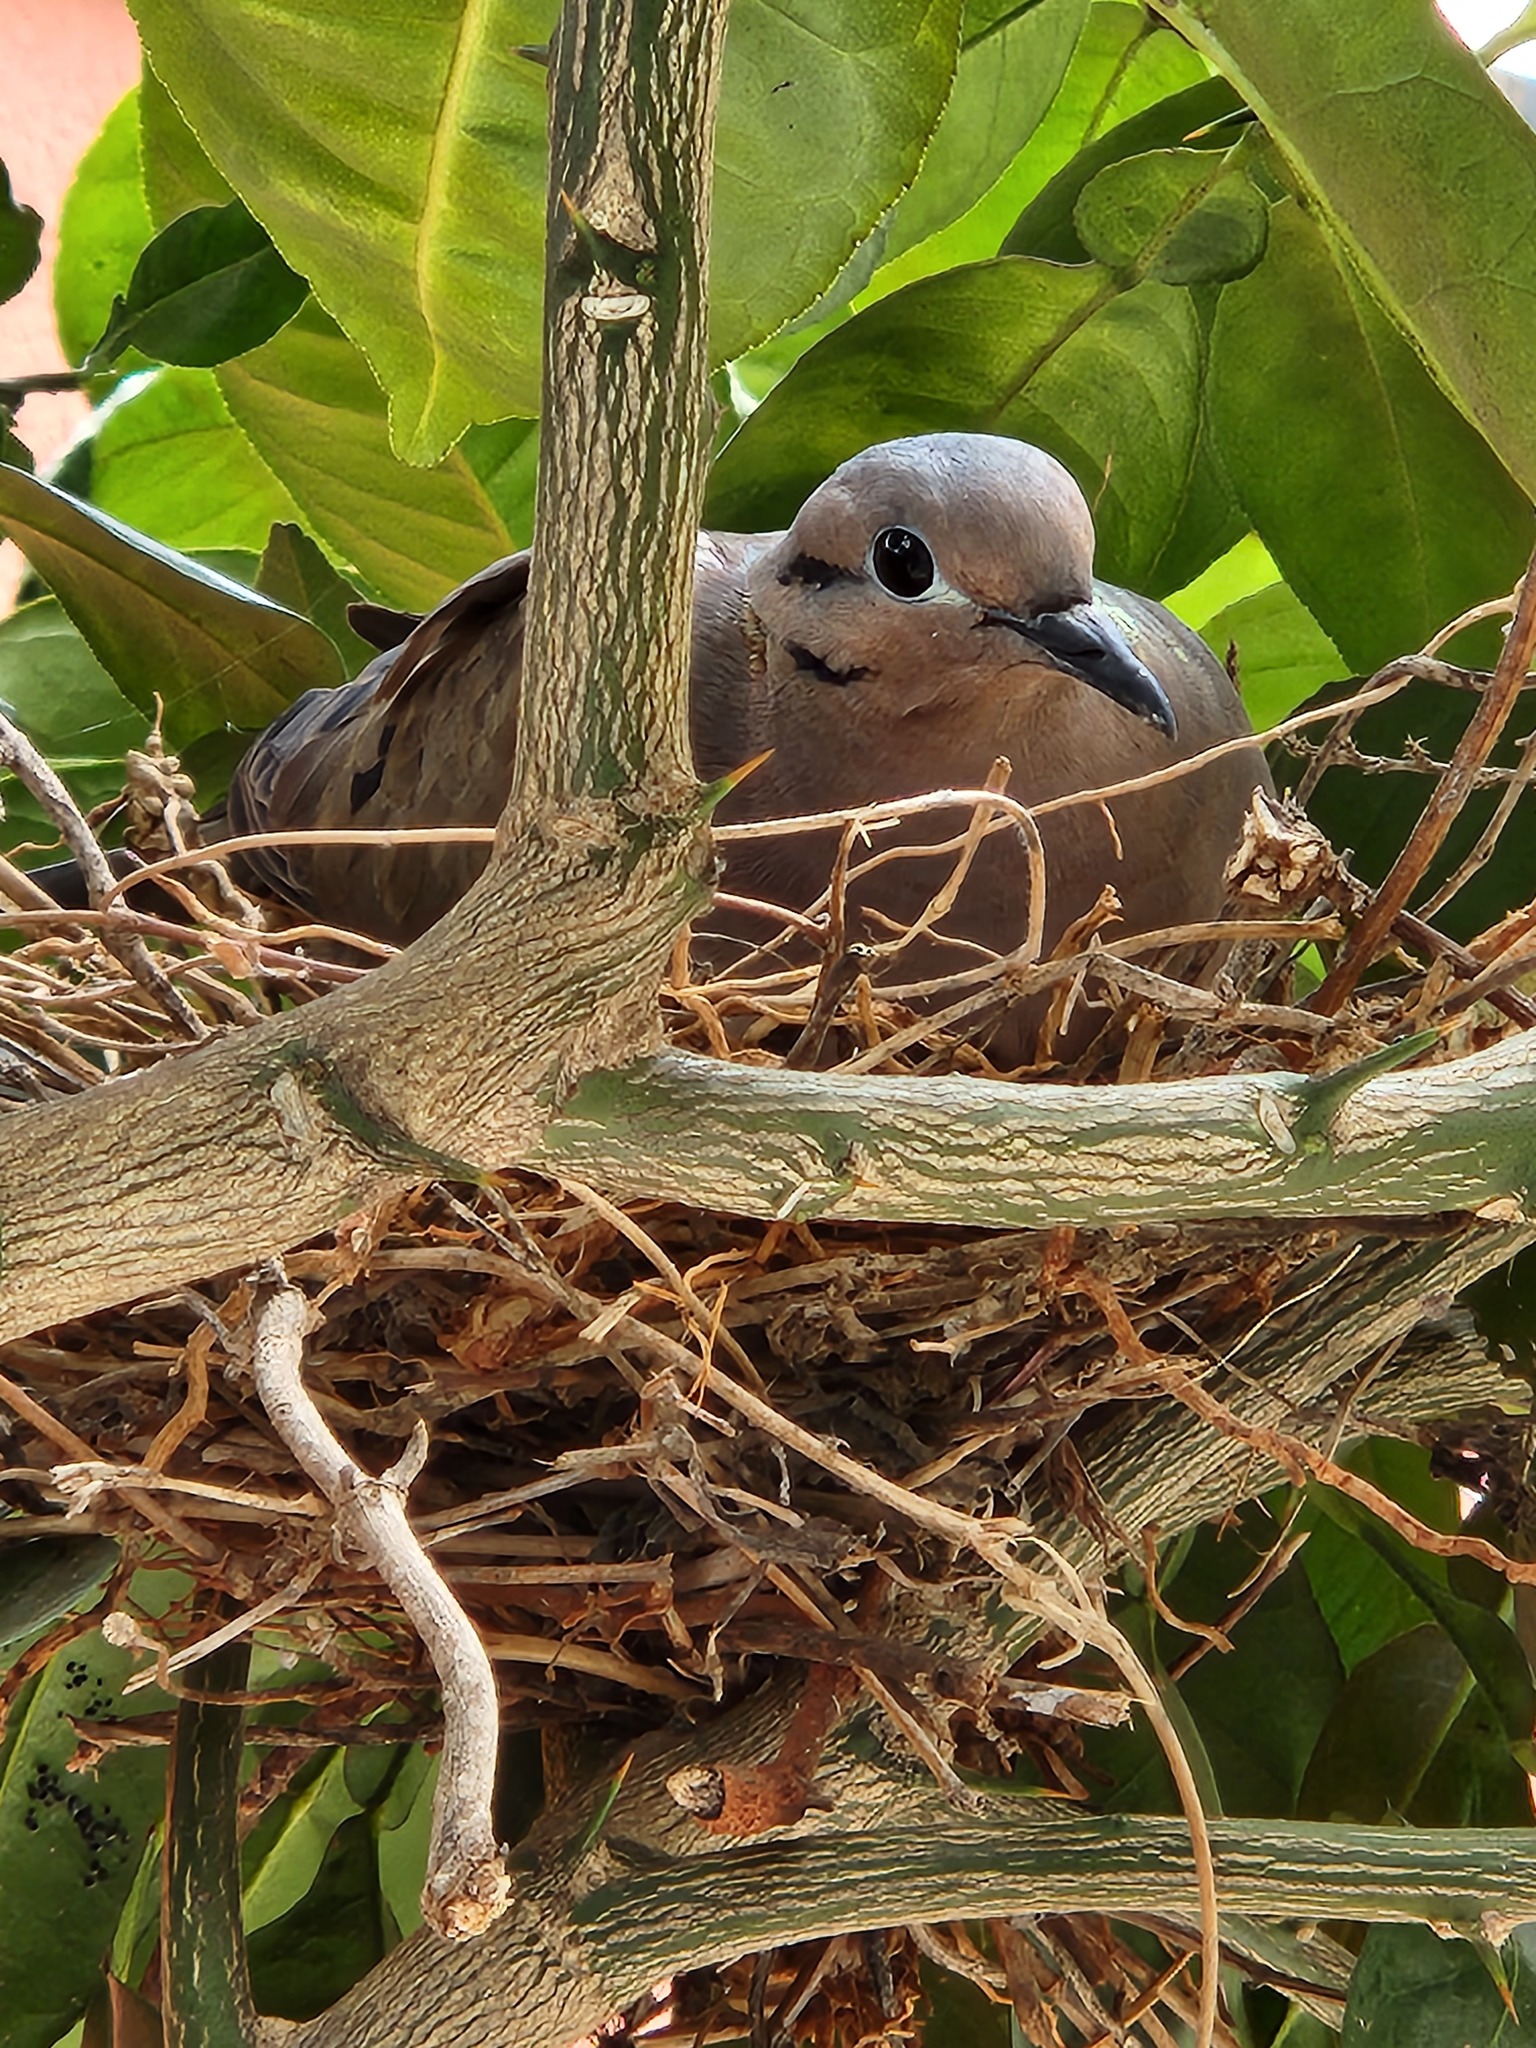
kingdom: Animalia
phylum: Chordata
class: Aves
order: Columbiformes
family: Columbidae
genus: Zenaida
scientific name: Zenaida auriculata
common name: Eared dove
